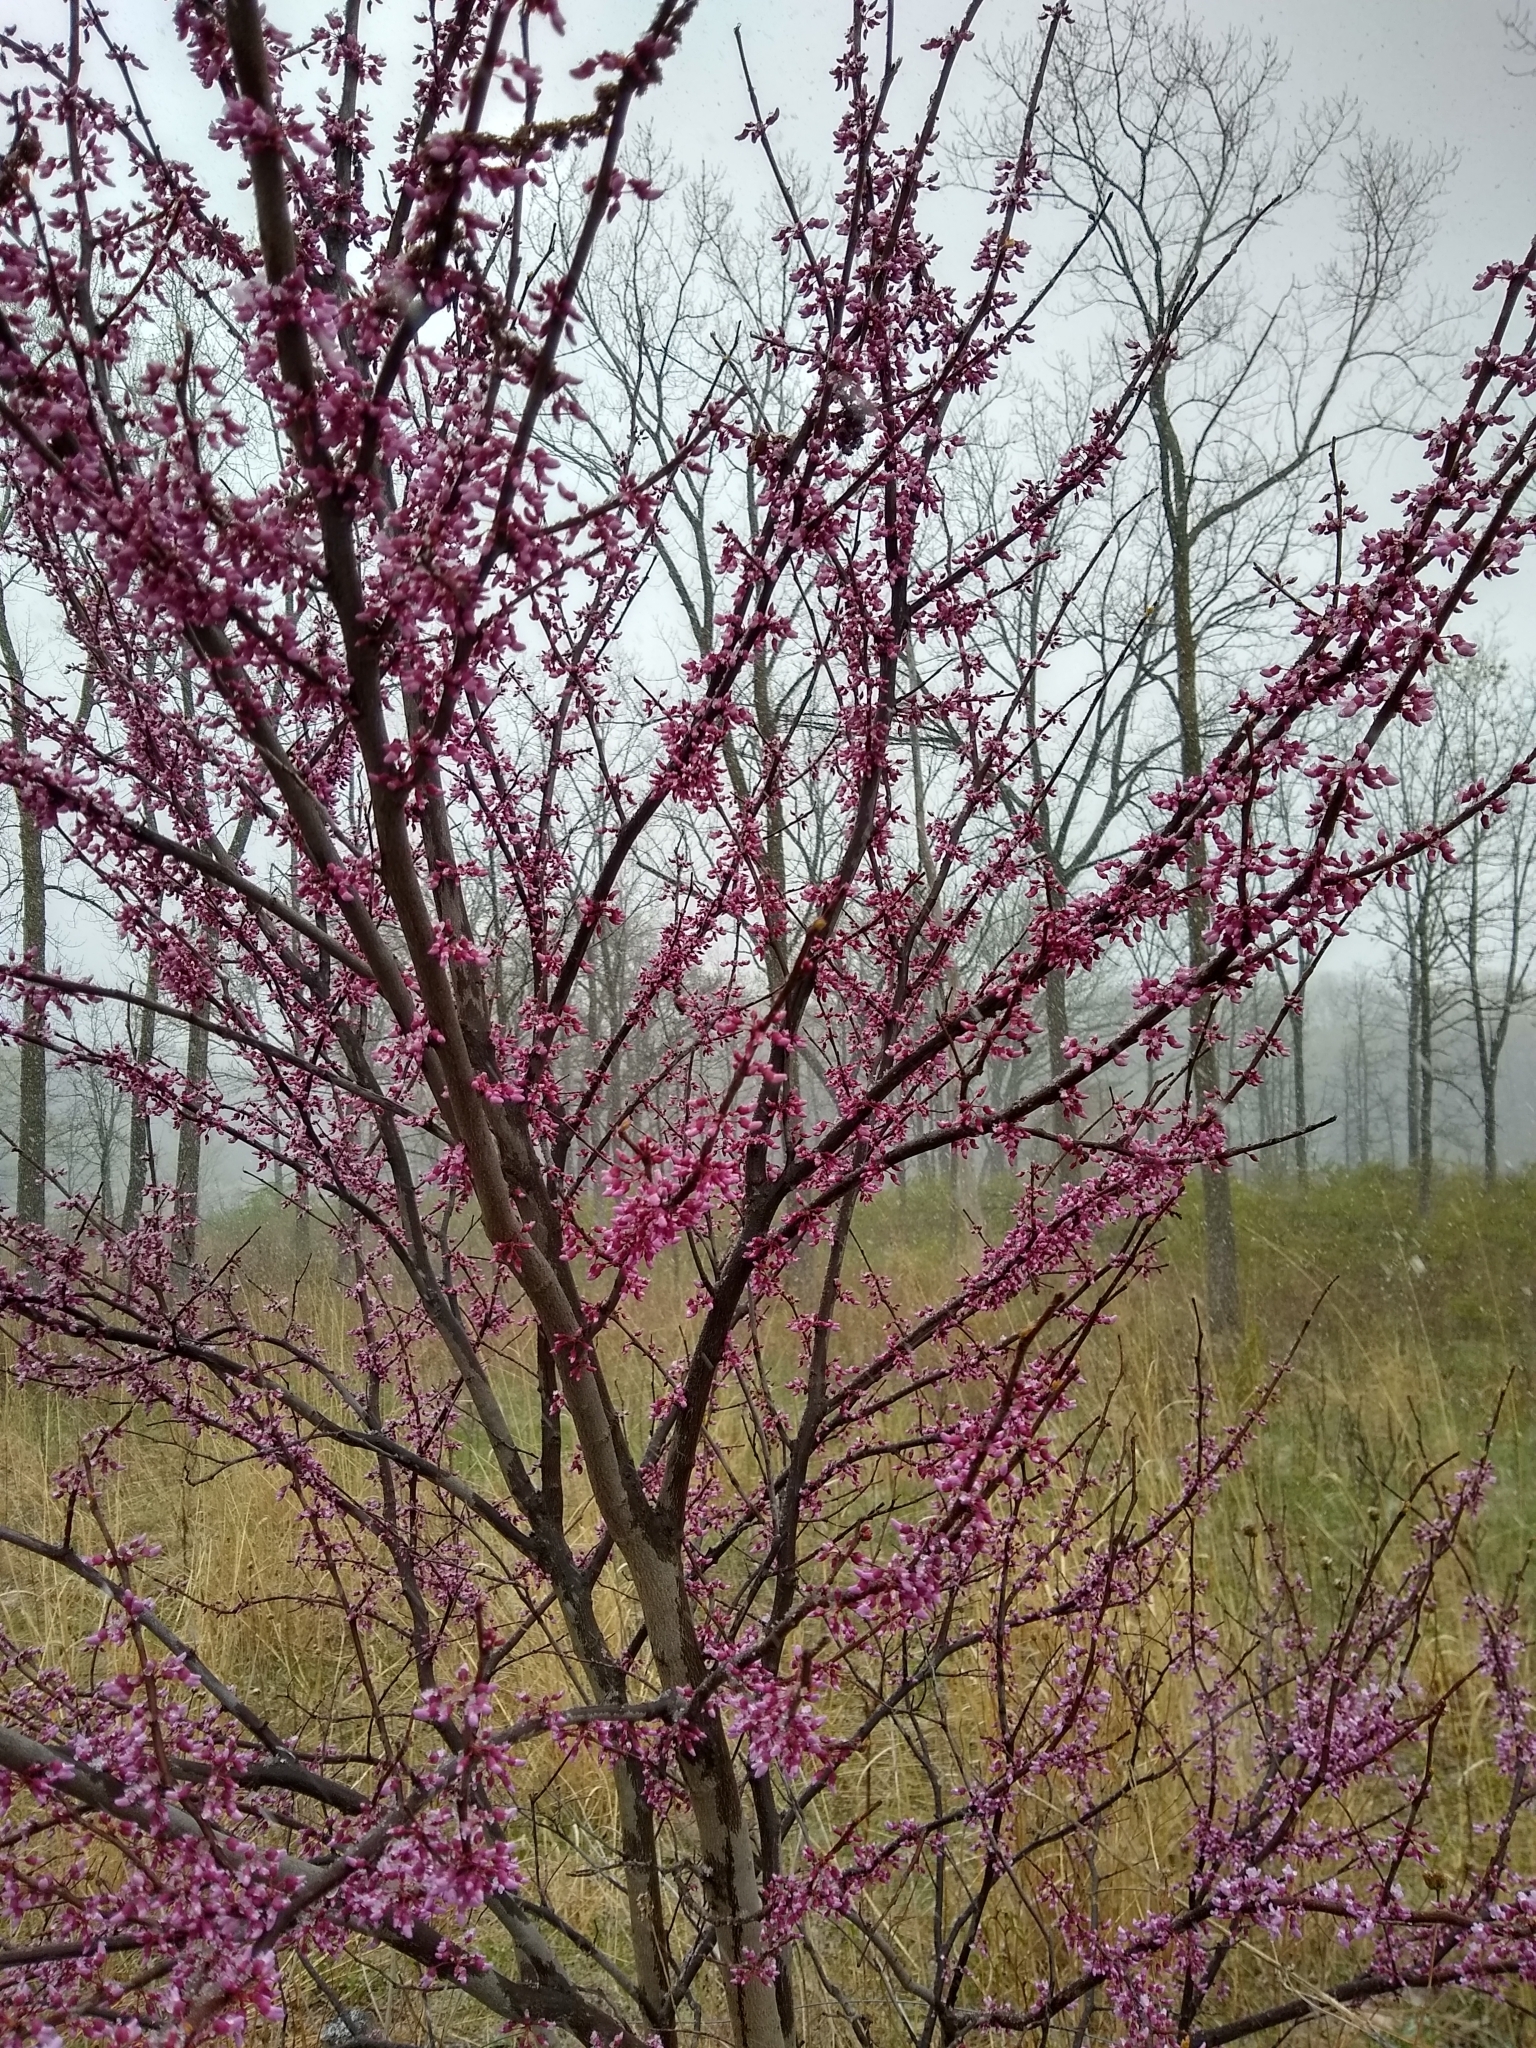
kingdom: Plantae
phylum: Tracheophyta
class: Magnoliopsida
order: Fabales
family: Fabaceae
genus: Cercis
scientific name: Cercis canadensis
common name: Eastern redbud
